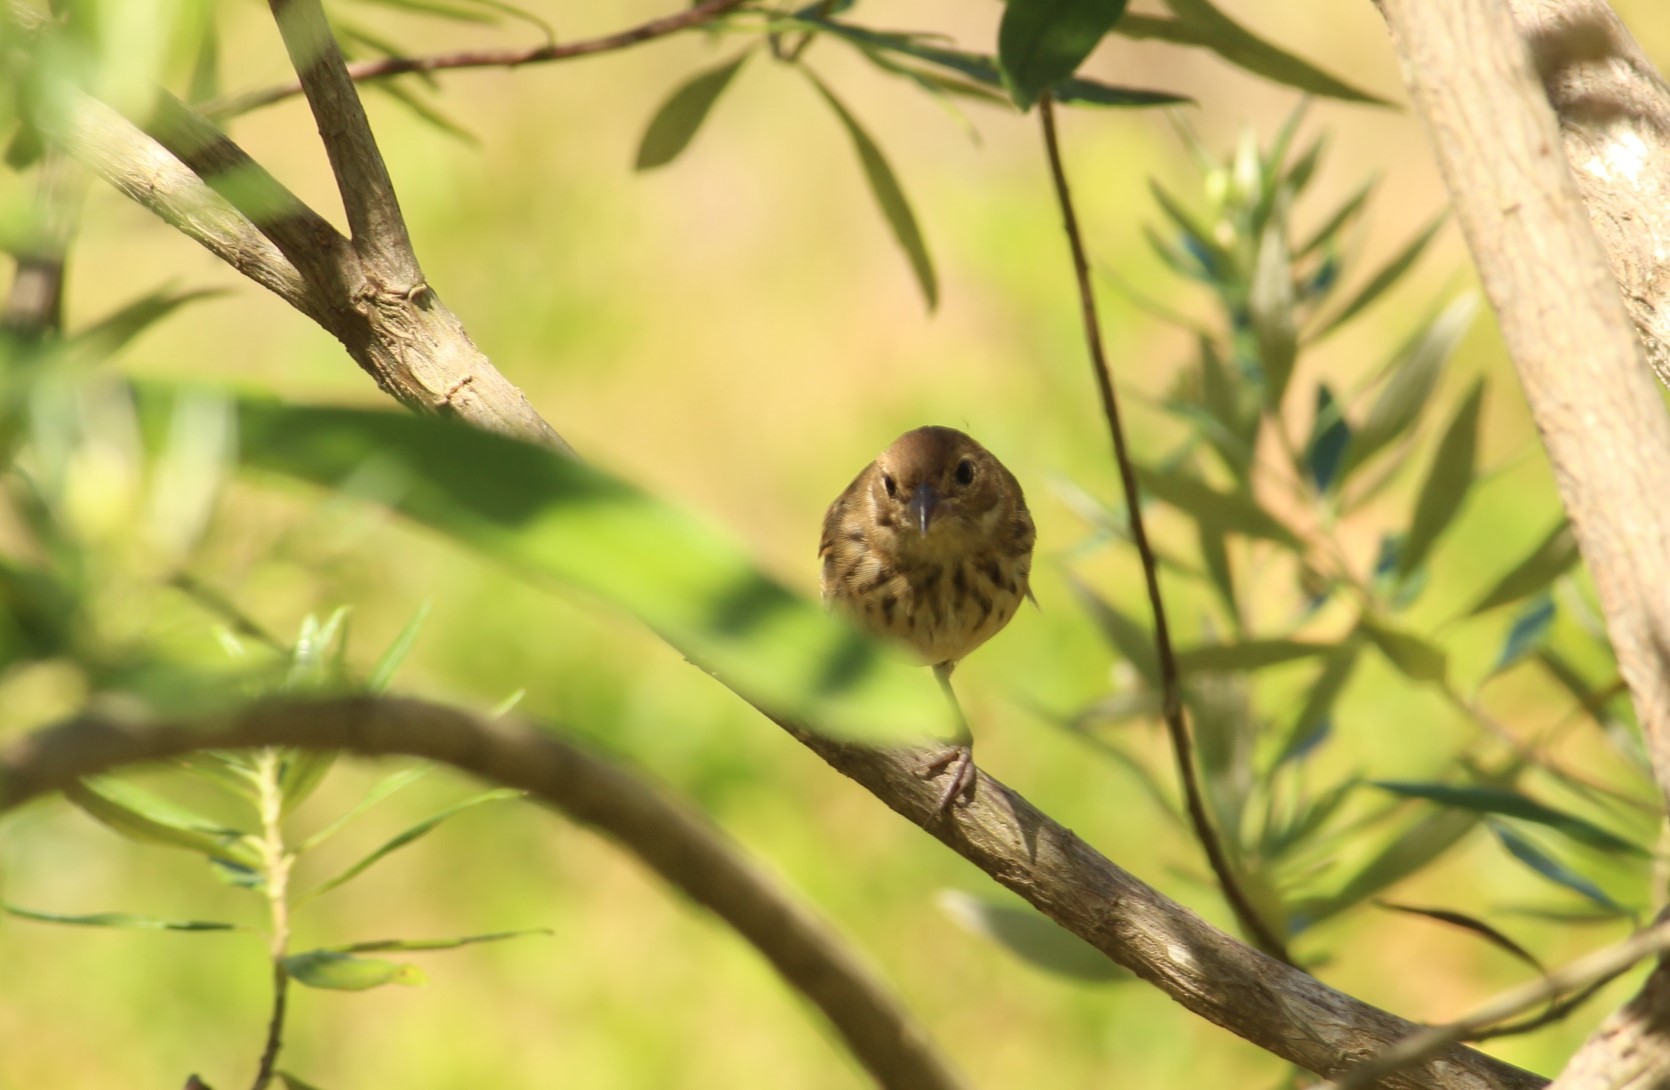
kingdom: Animalia
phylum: Chordata
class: Aves
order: Passeriformes
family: Thraupidae
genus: Volatinia
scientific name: Volatinia jacarina
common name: Blue-black grassquit
